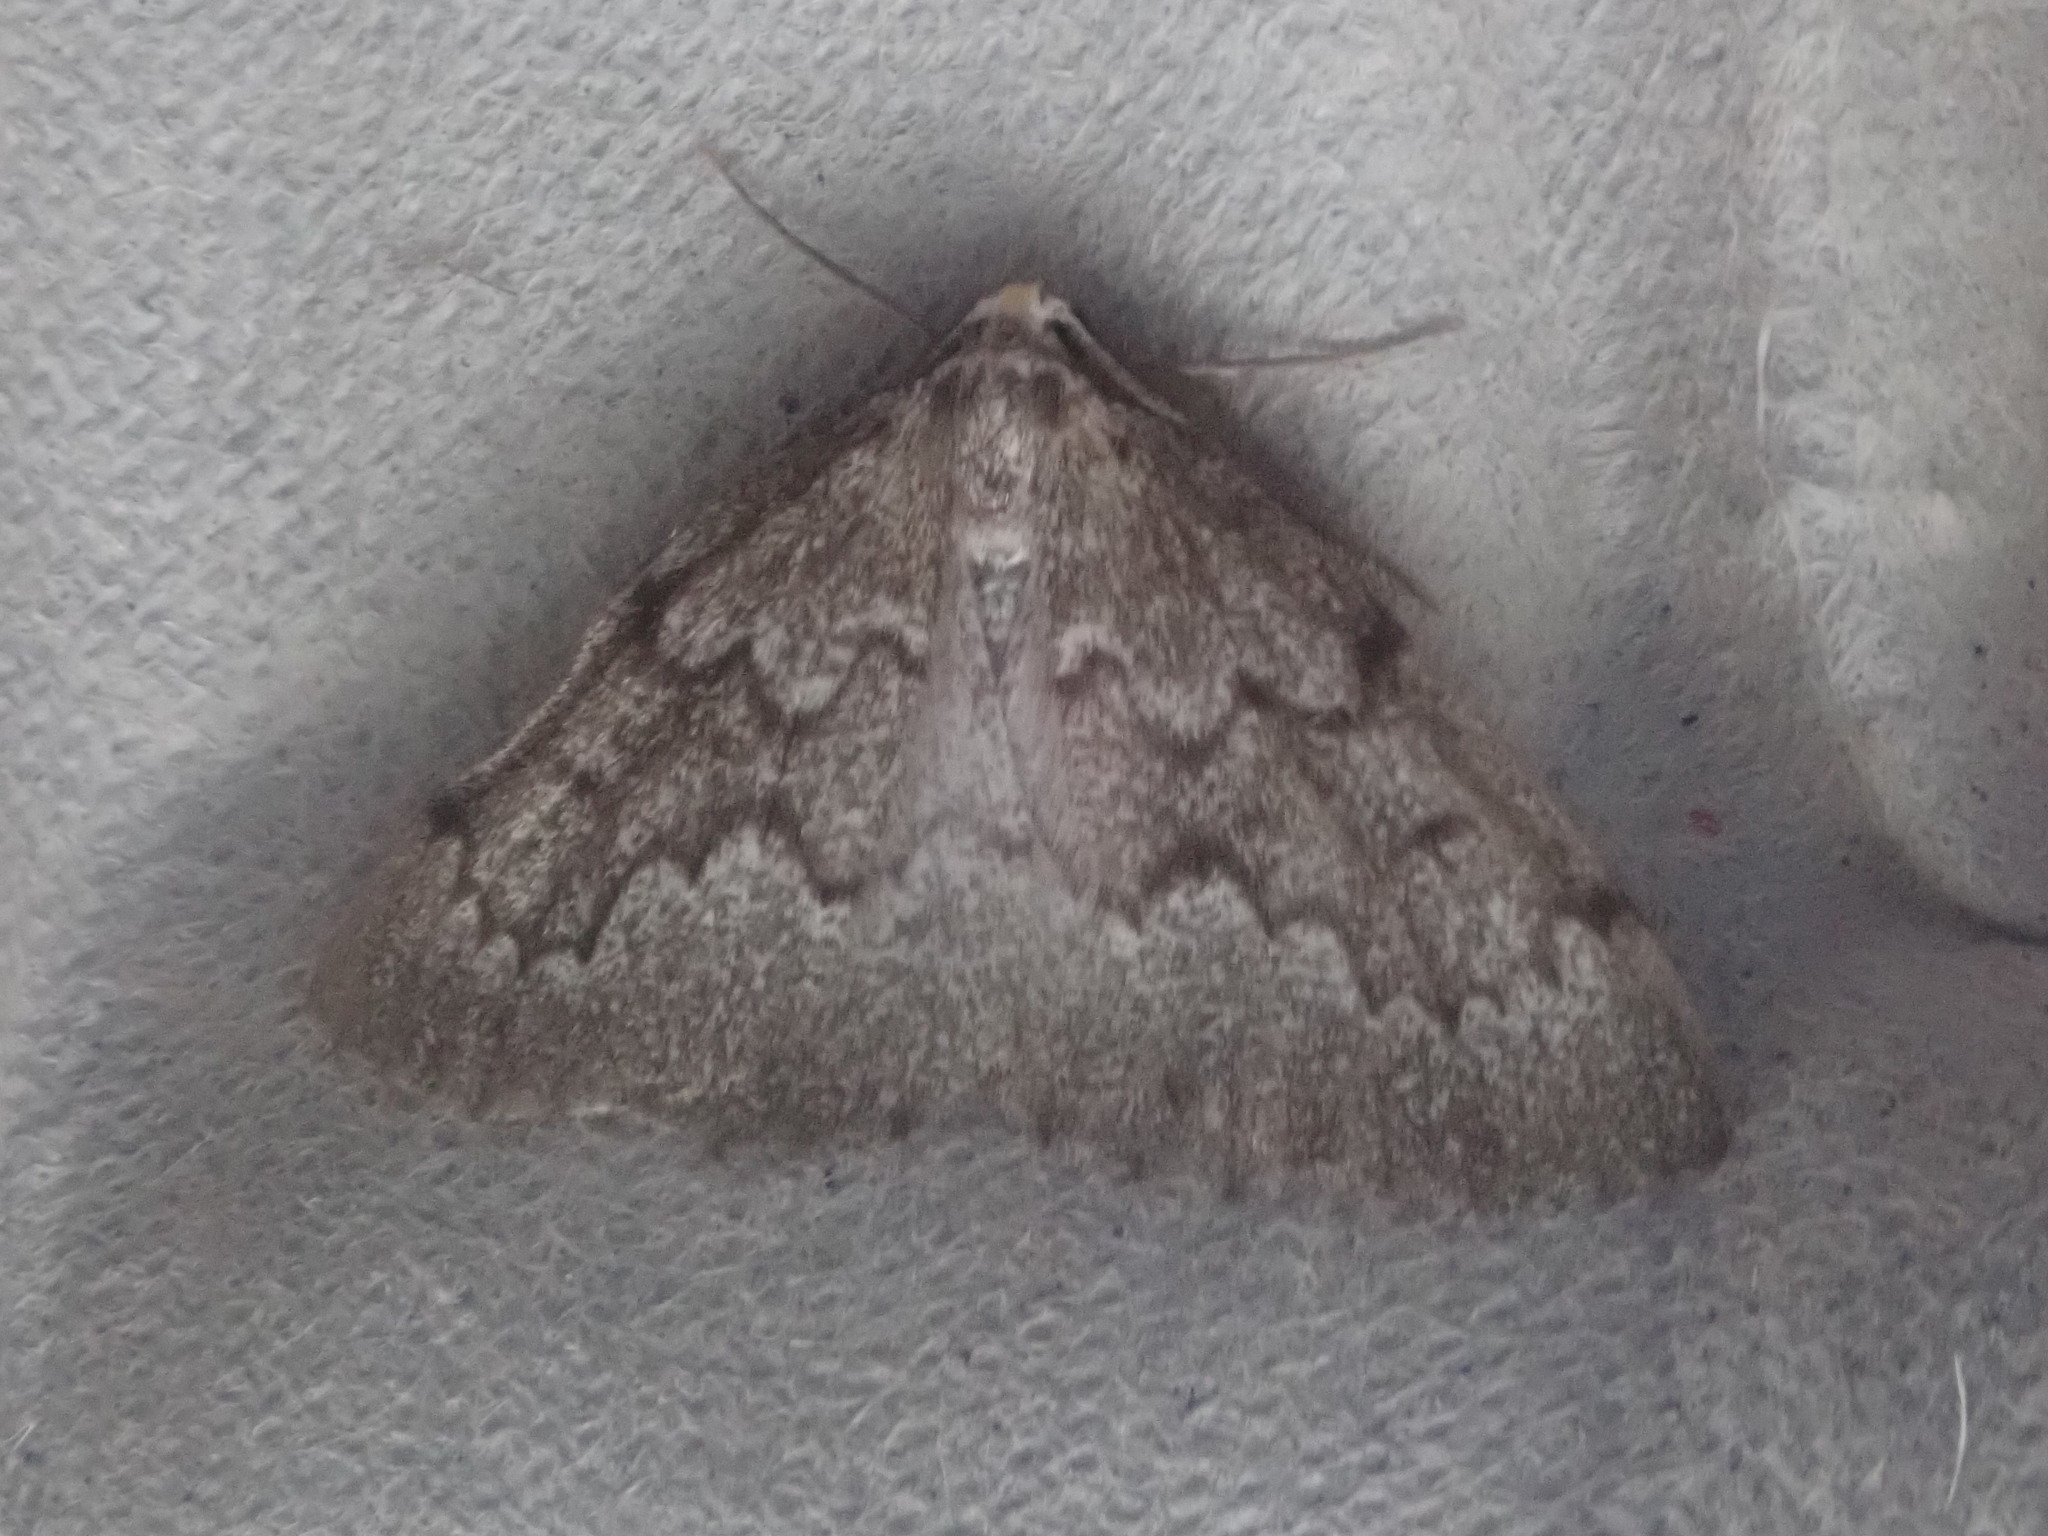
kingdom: Animalia
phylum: Arthropoda
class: Insecta
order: Lepidoptera
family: Geometridae
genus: Nepytia
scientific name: Nepytia canosaria
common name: False hemlock looper
